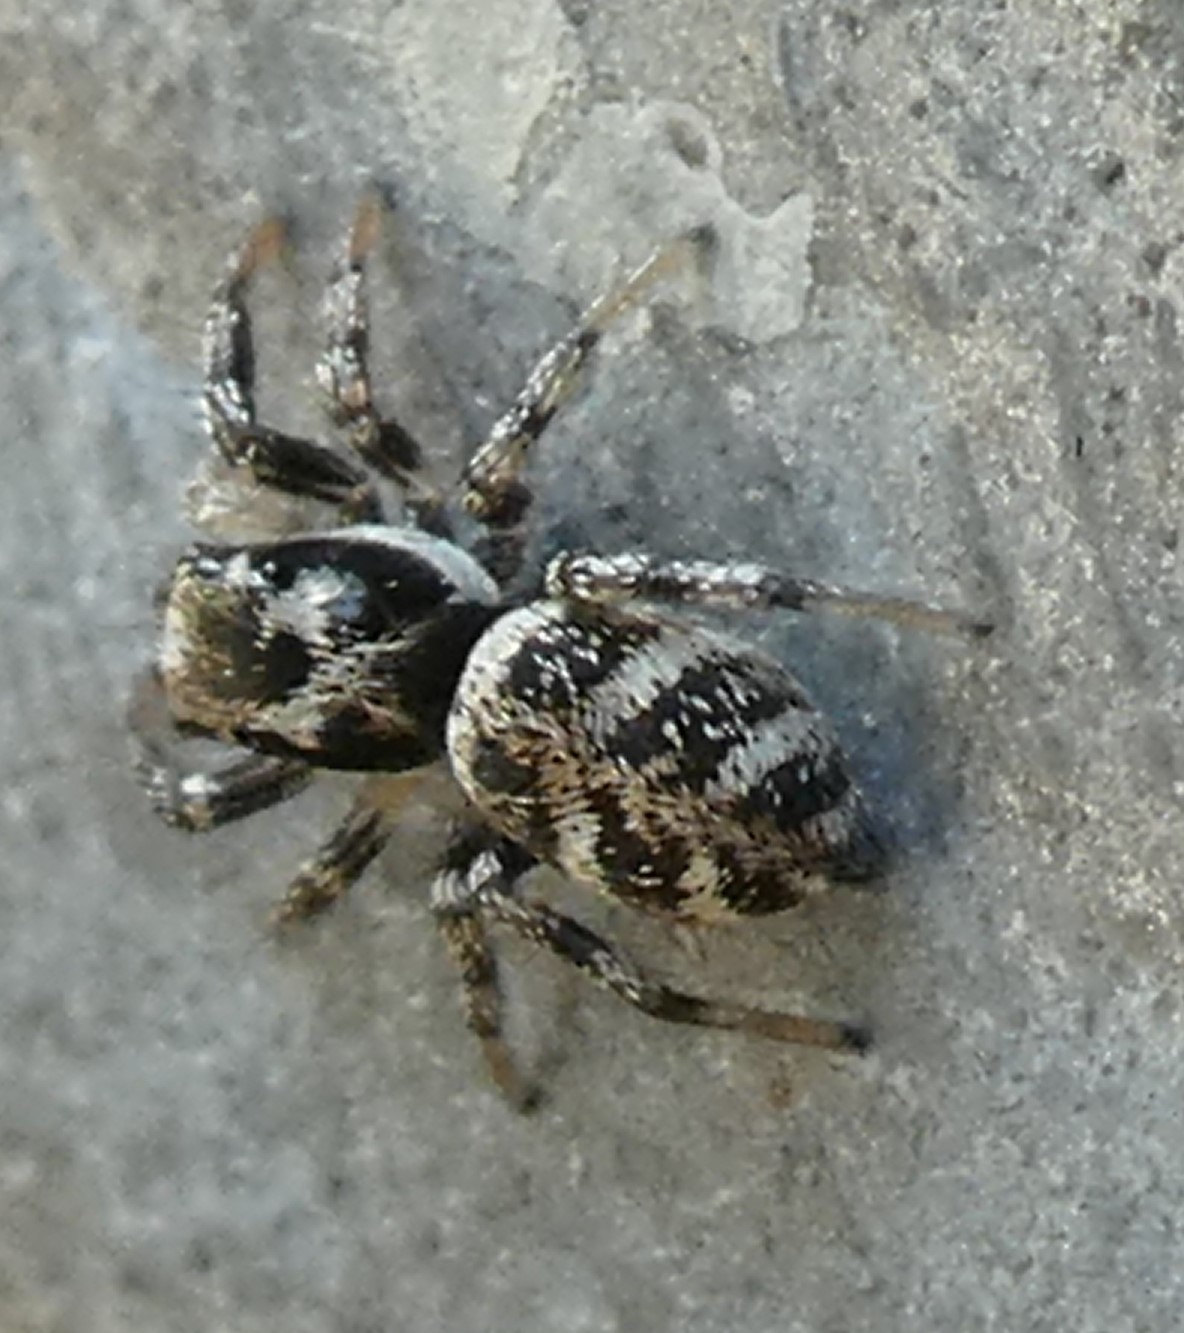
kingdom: Animalia
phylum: Arthropoda
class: Arachnida
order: Araneae
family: Salticidae
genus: Salticus
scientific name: Salticus scenicus
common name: Zebra jumper
